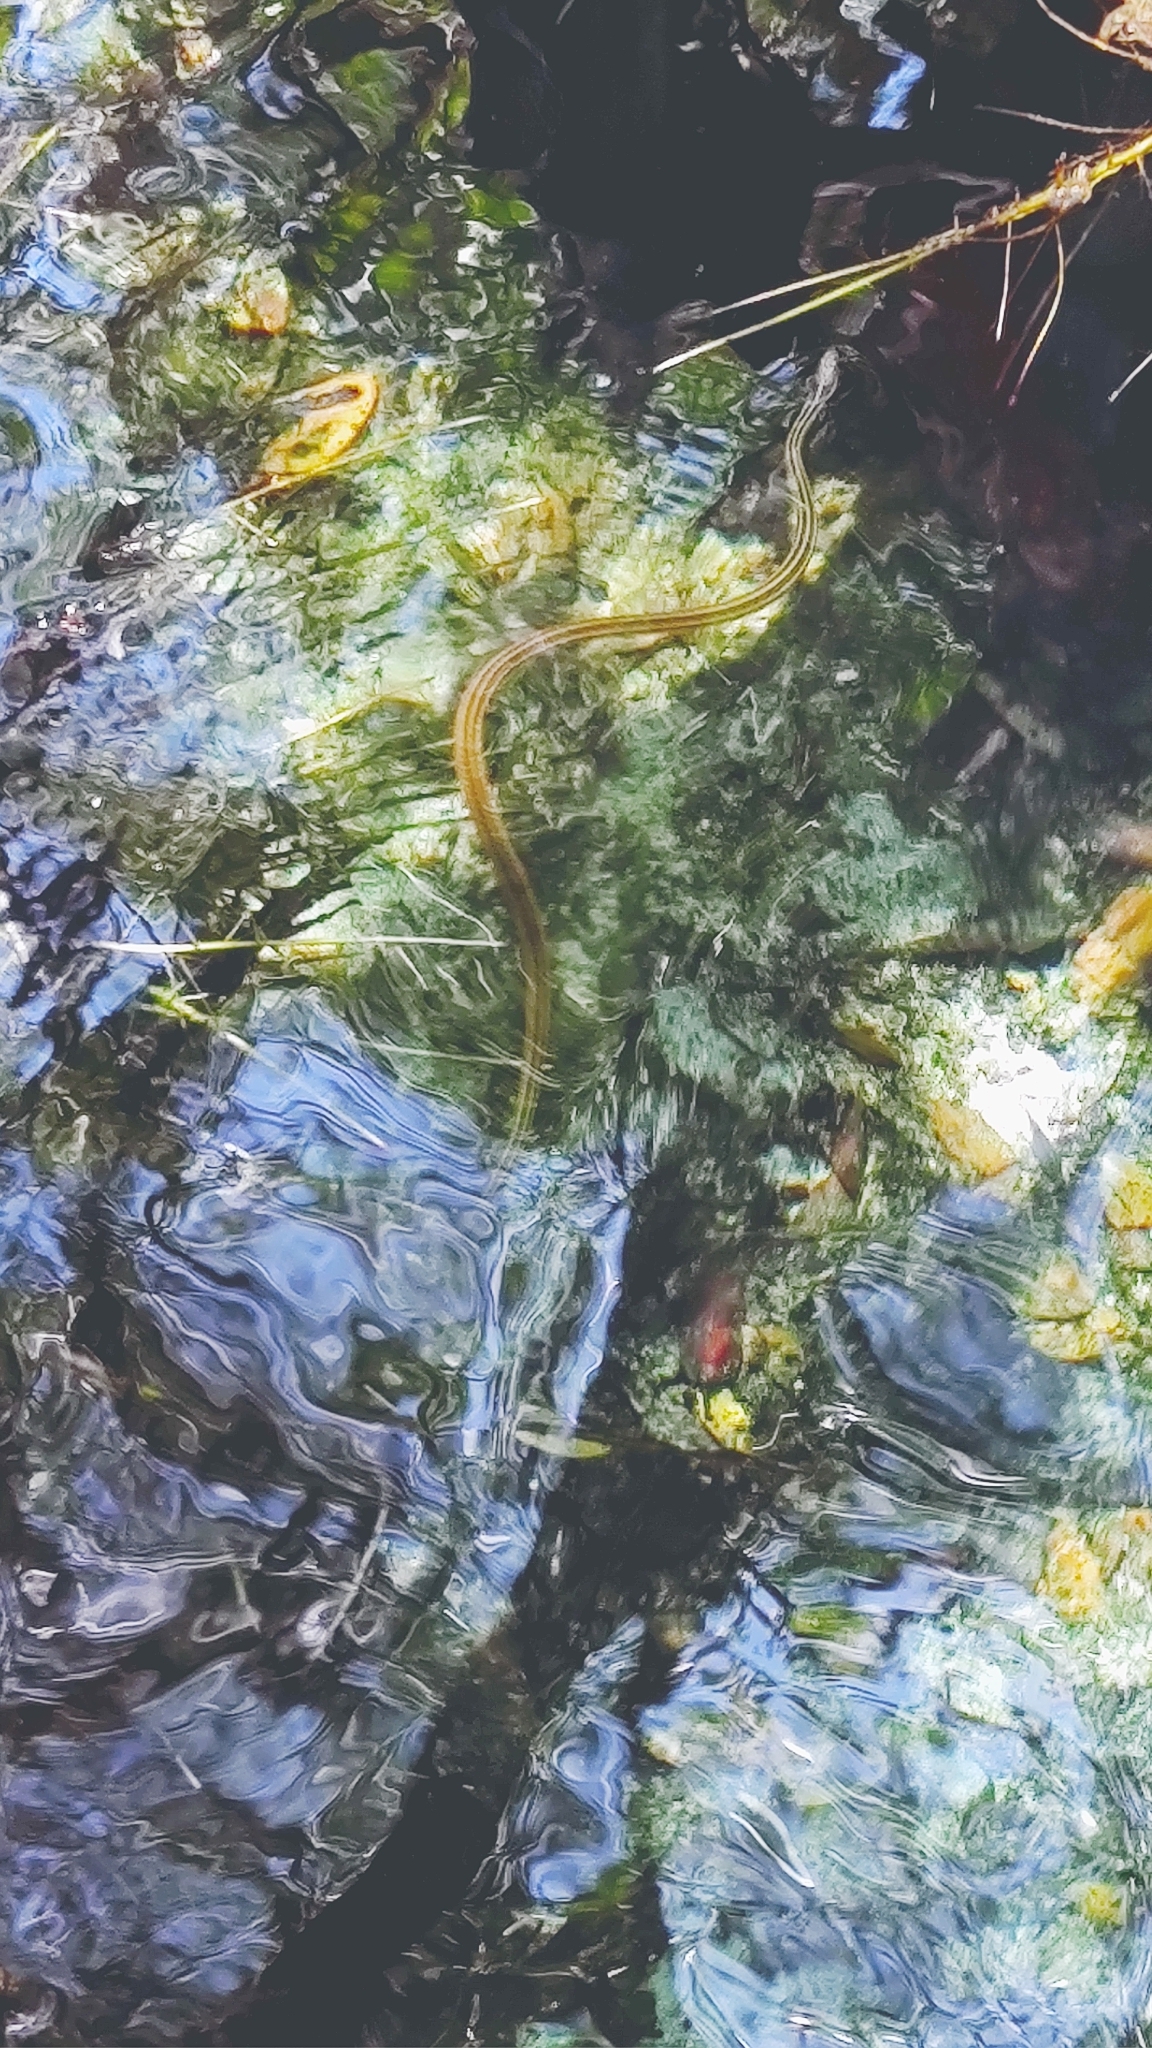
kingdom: Animalia
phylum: Chordata
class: Squamata
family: Colubridae
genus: Thamnophis
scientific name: Thamnophis proximus
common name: Western ribbon snake
